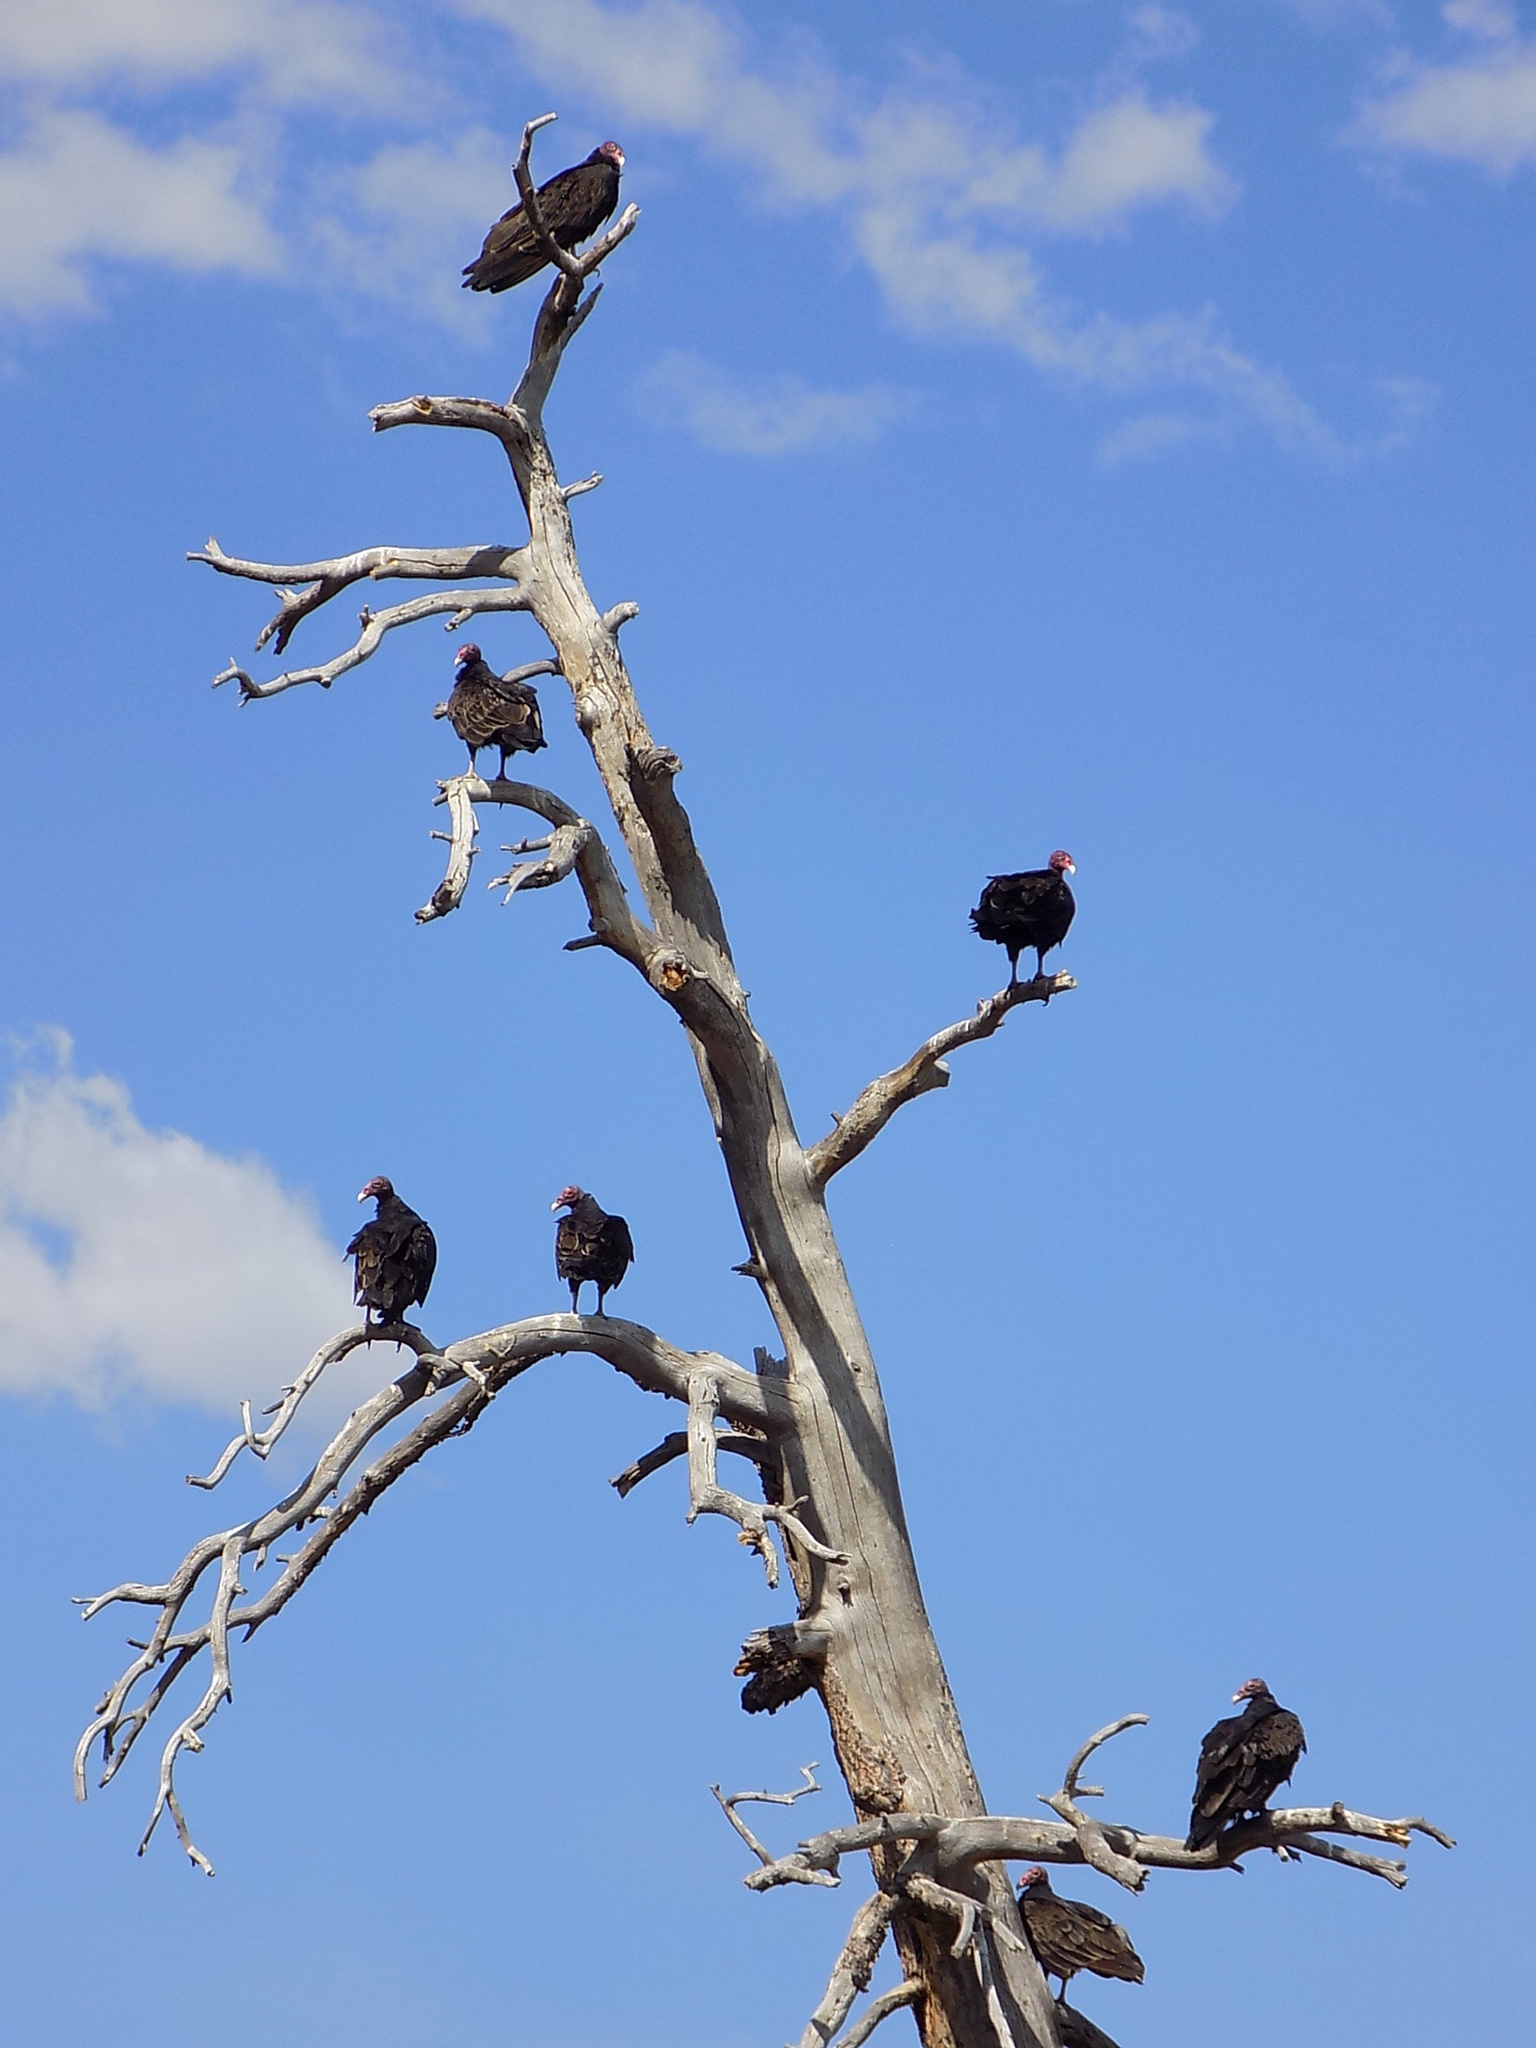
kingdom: Animalia
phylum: Chordata
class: Aves
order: Accipitriformes
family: Cathartidae
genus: Cathartes
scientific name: Cathartes aura
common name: Turkey vulture
